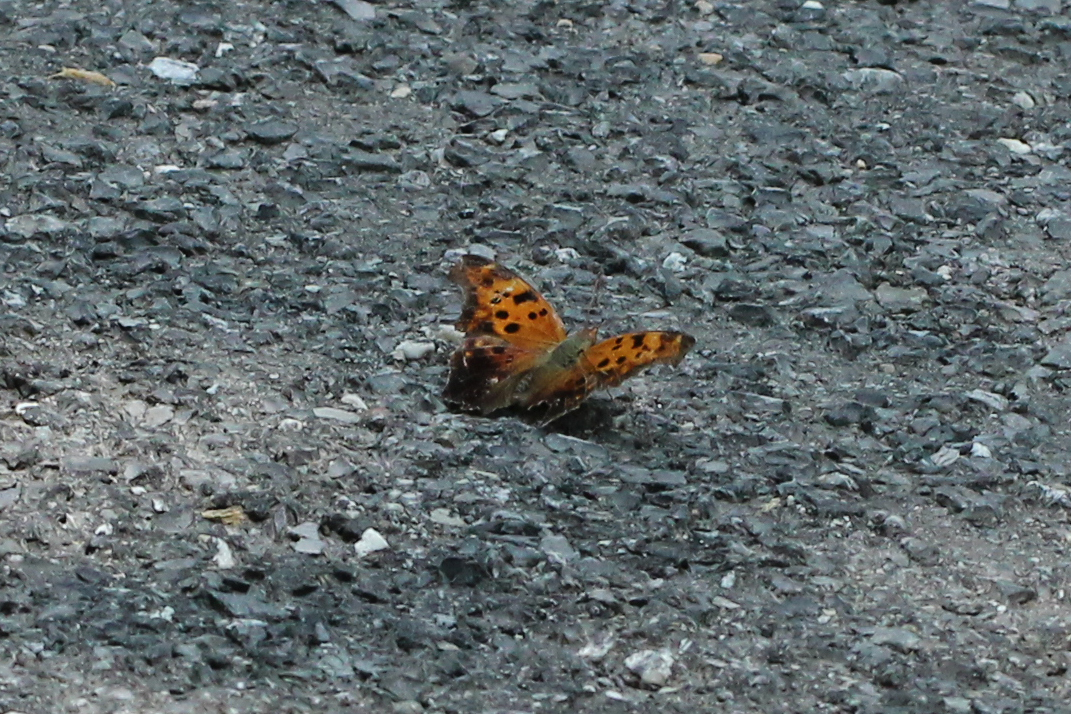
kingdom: Animalia
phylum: Arthropoda
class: Insecta
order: Lepidoptera
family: Nymphalidae
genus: Polygonia
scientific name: Polygonia interrogationis
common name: Question mark
